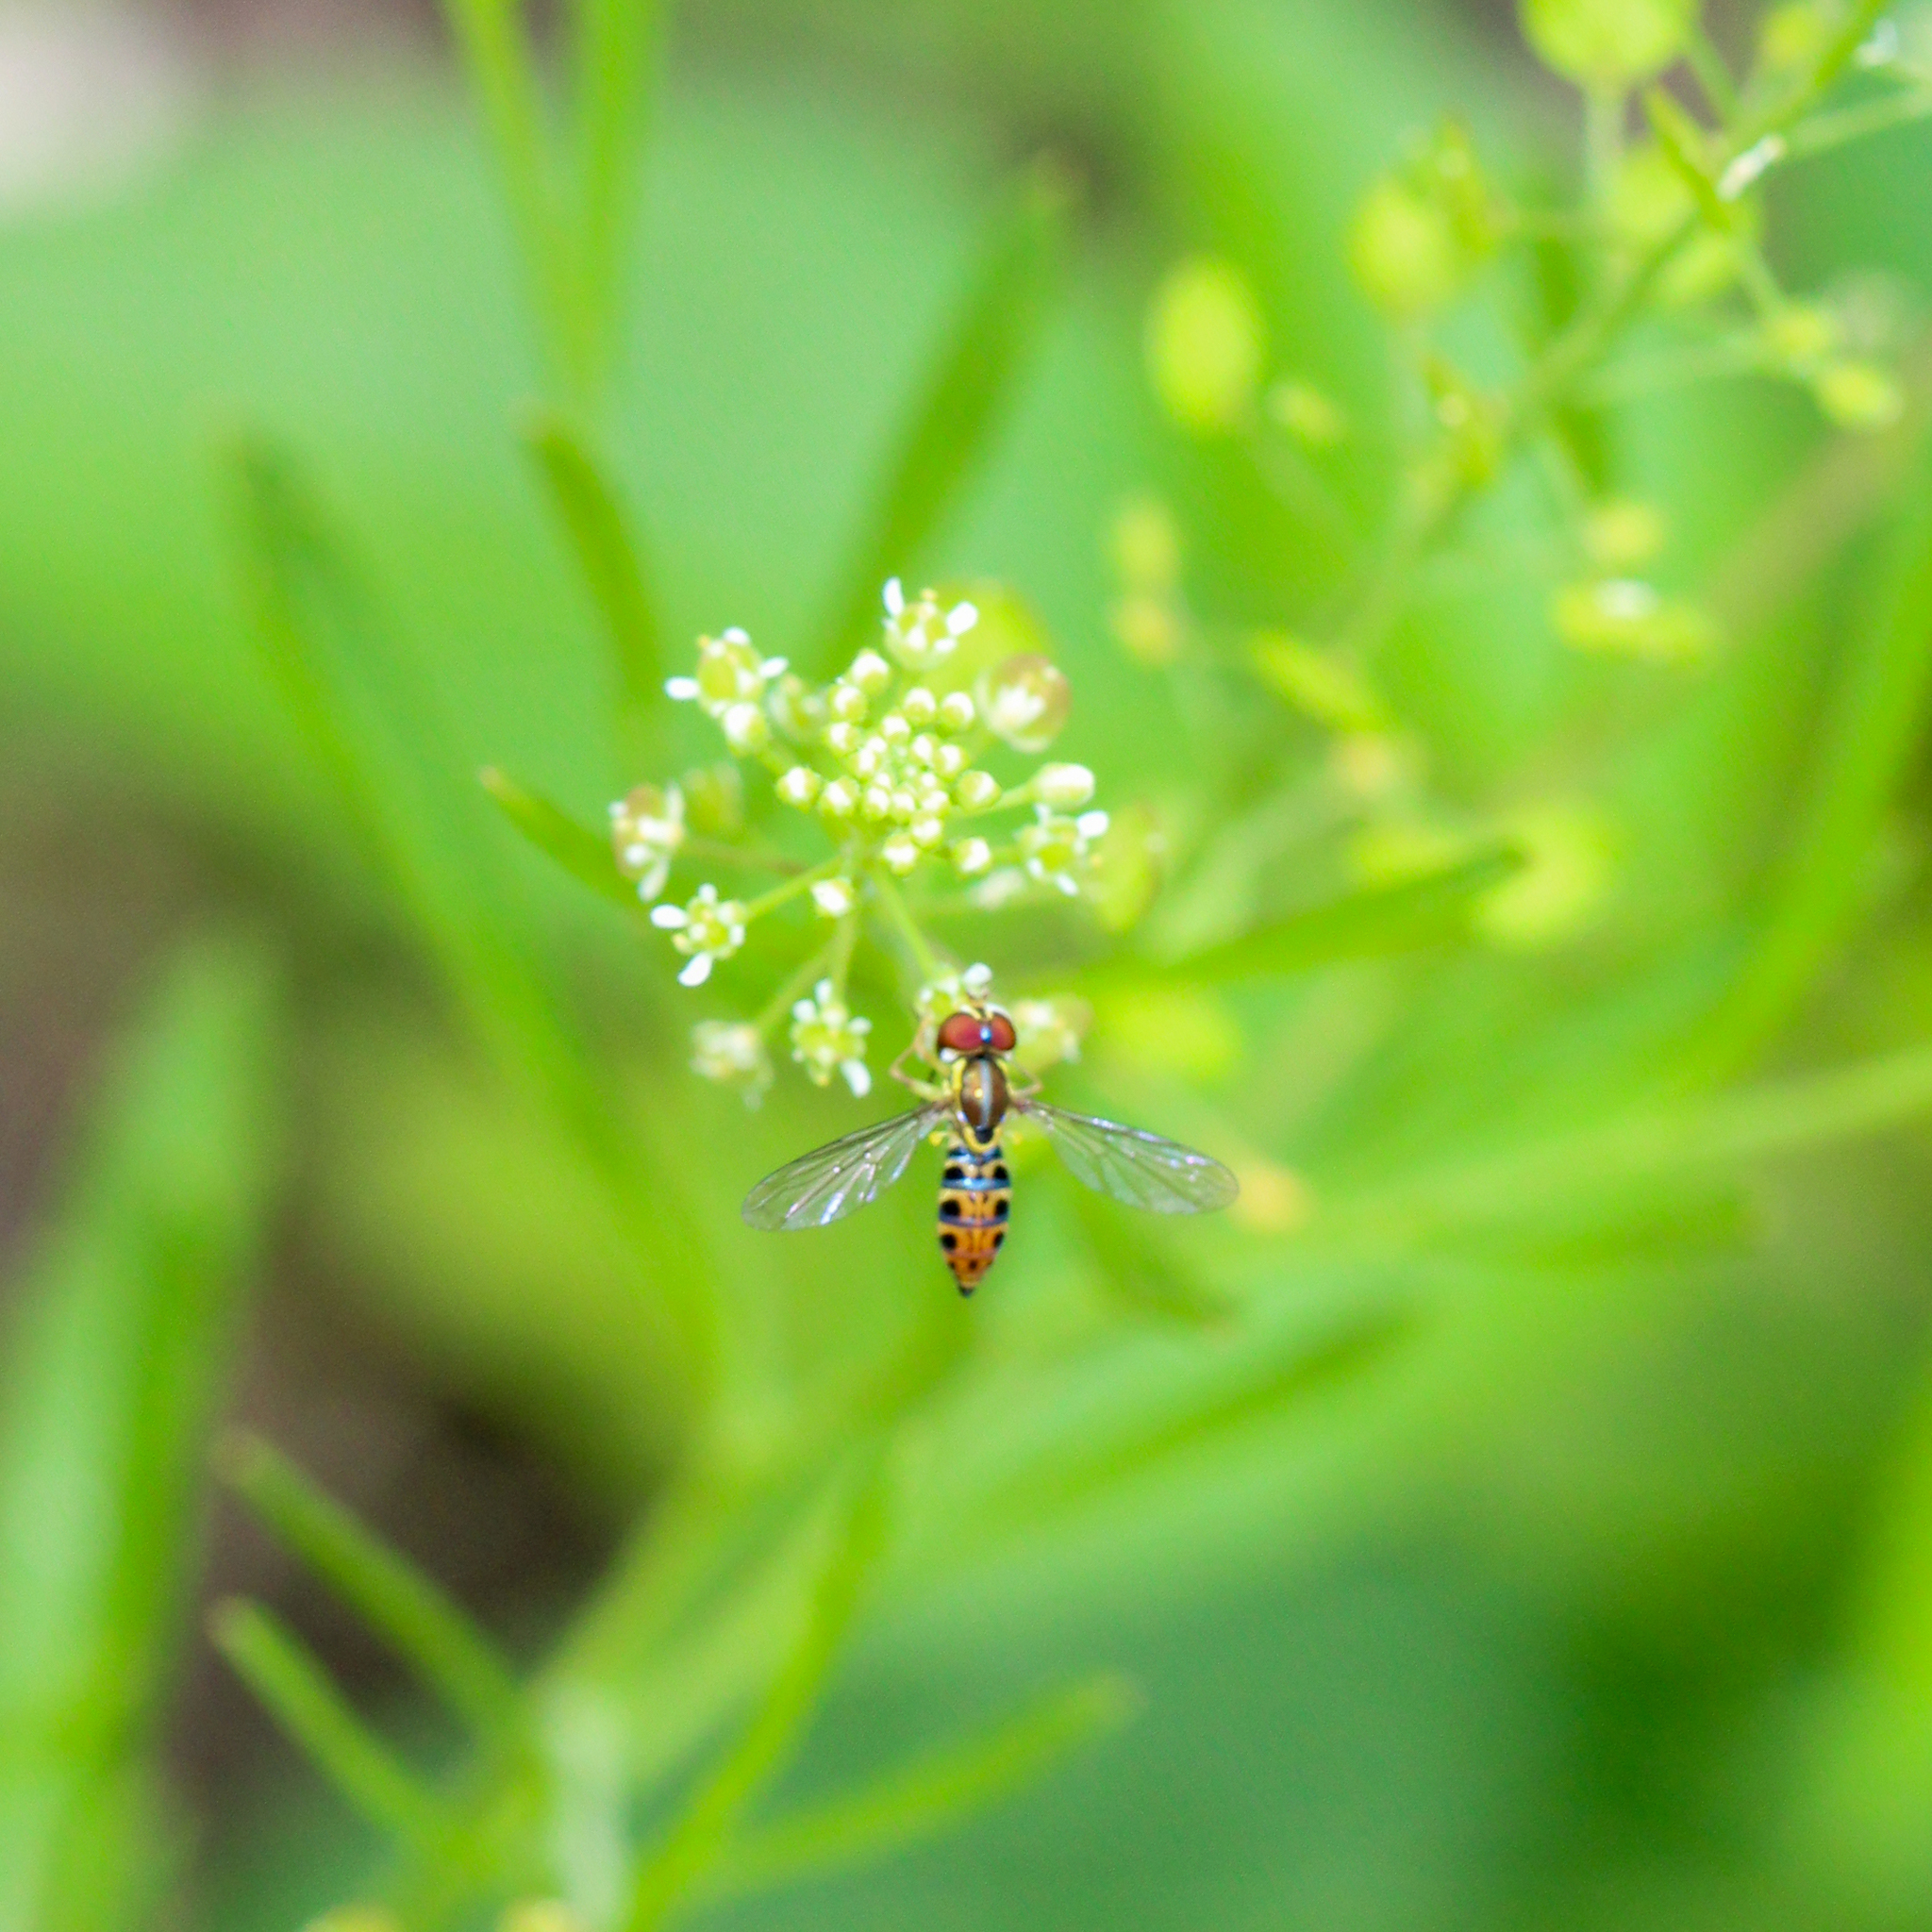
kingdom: Animalia
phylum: Arthropoda
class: Insecta
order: Diptera
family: Syrphidae
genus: Toxomerus
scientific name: Toxomerus arcifer
